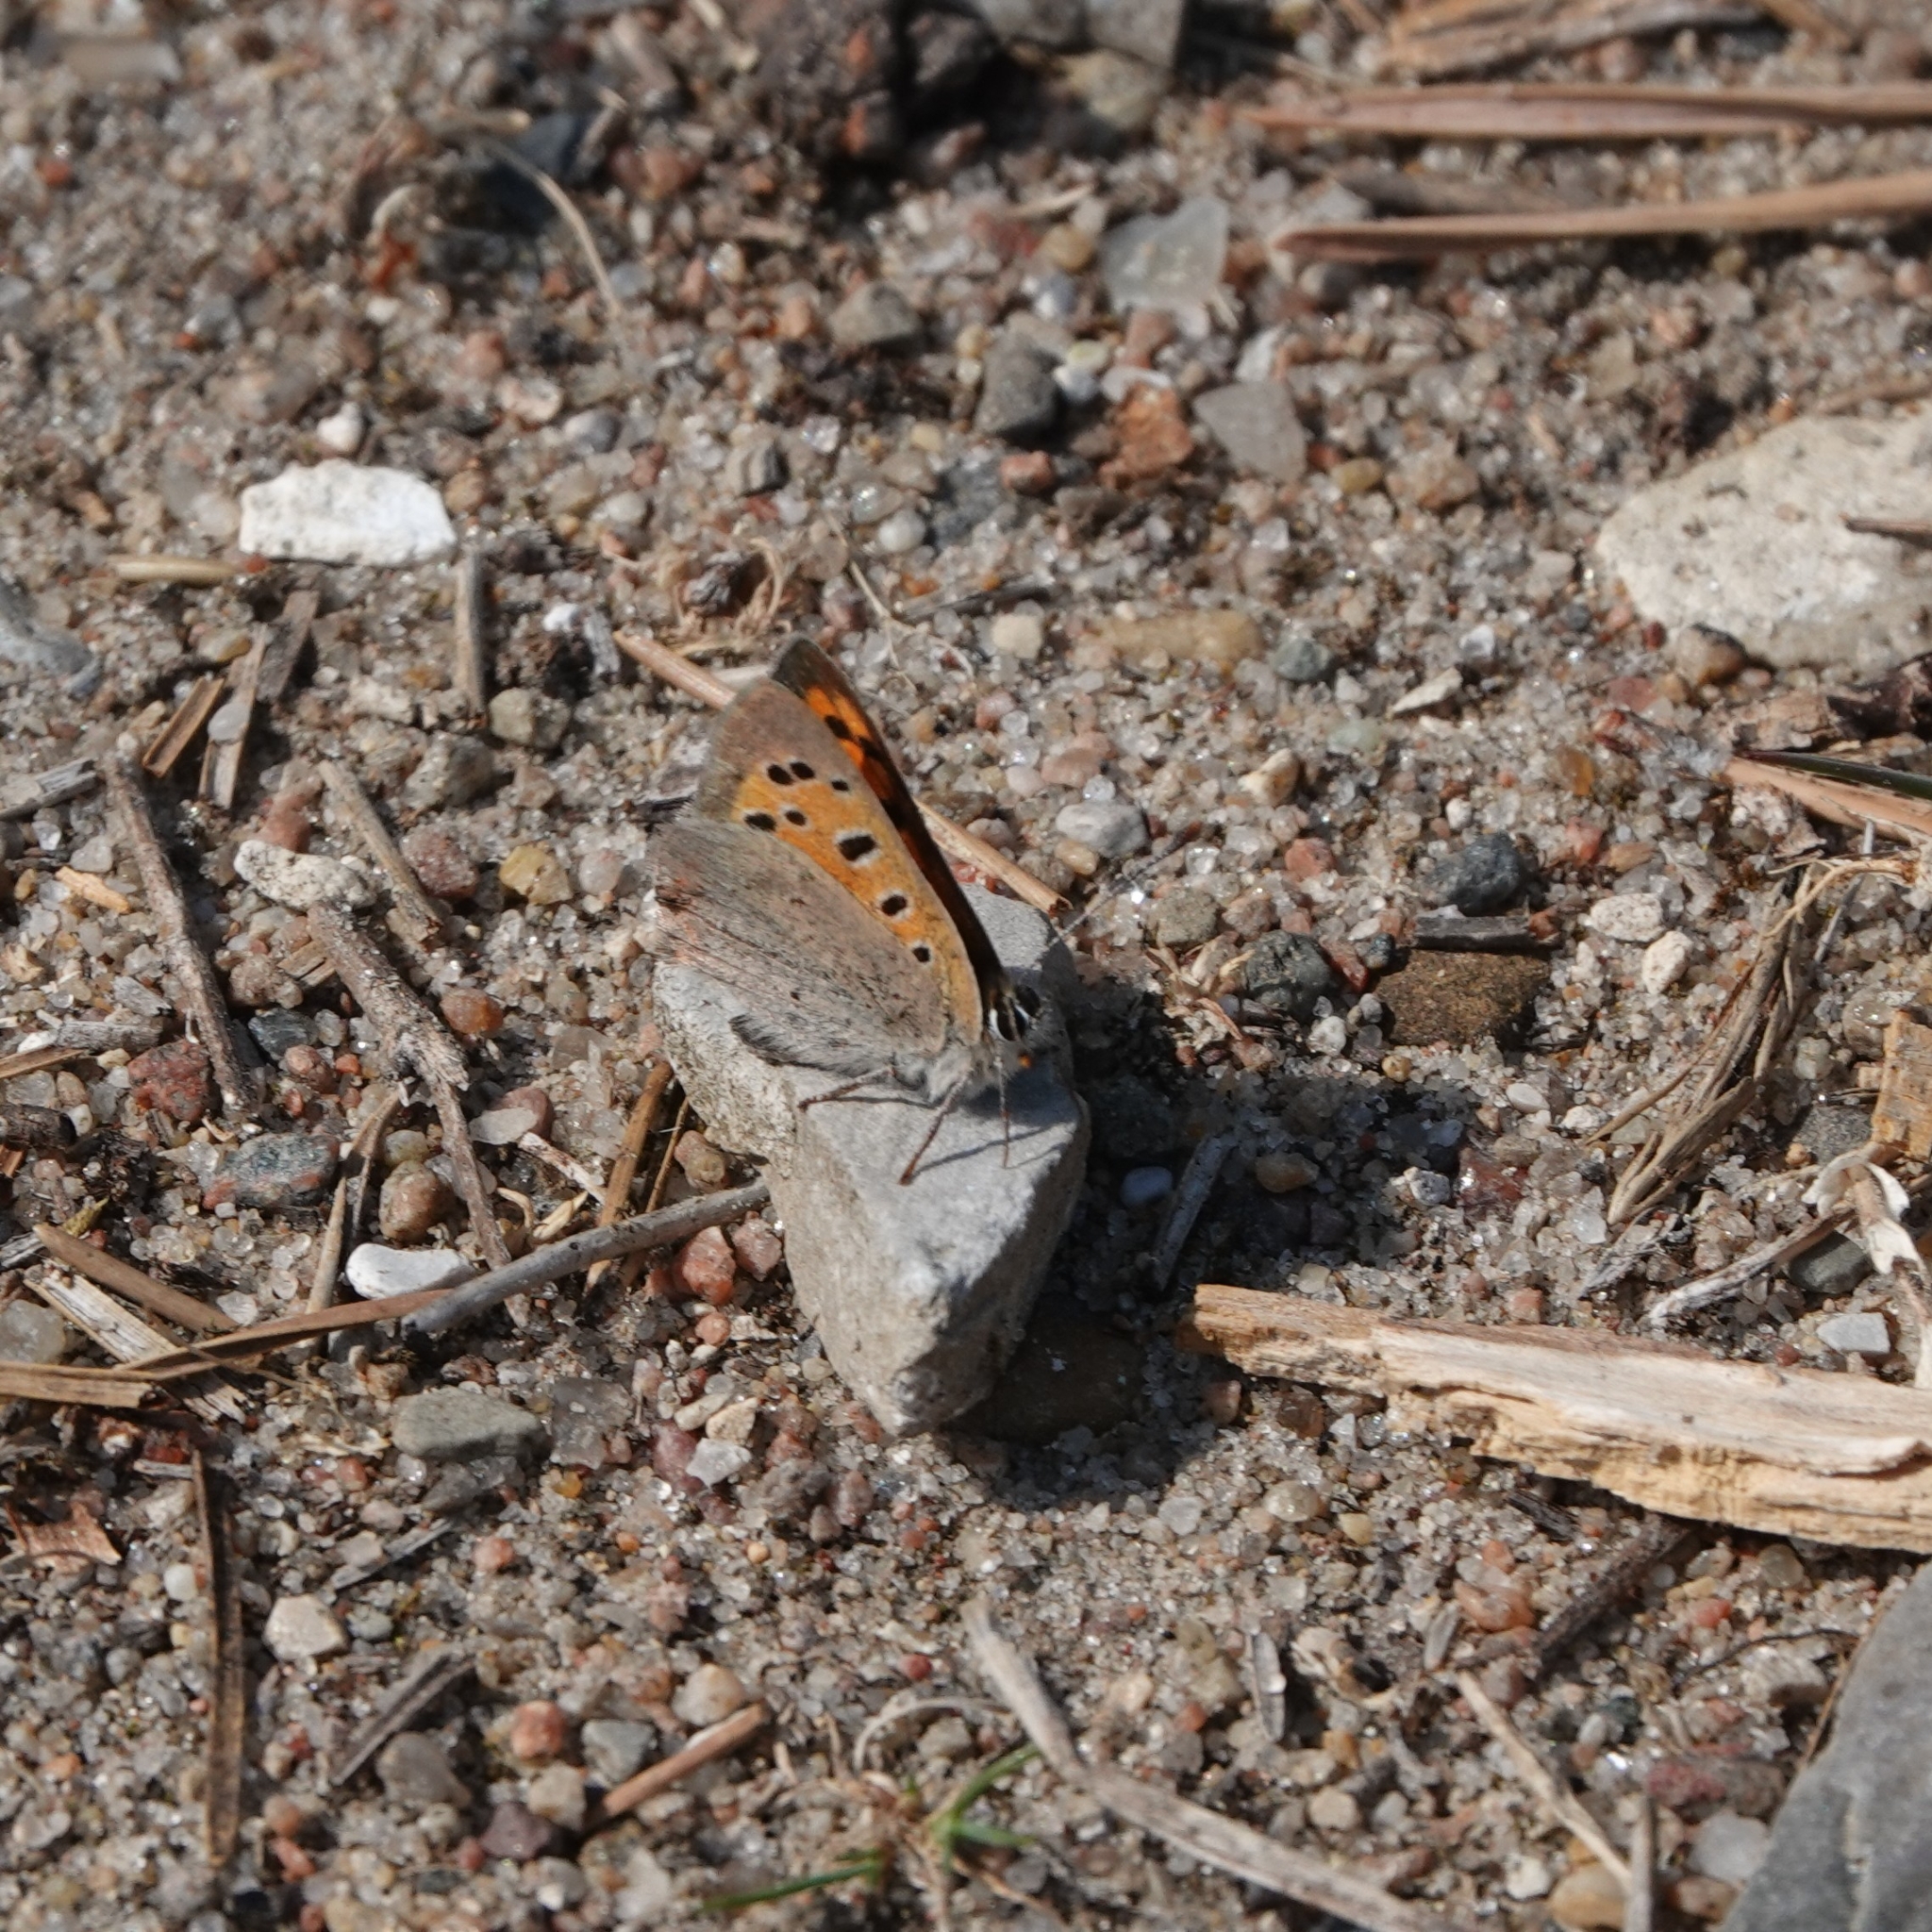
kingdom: Animalia
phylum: Arthropoda
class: Insecta
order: Lepidoptera
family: Lycaenidae
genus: Lycaena
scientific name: Lycaena phlaeas
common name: Small copper
